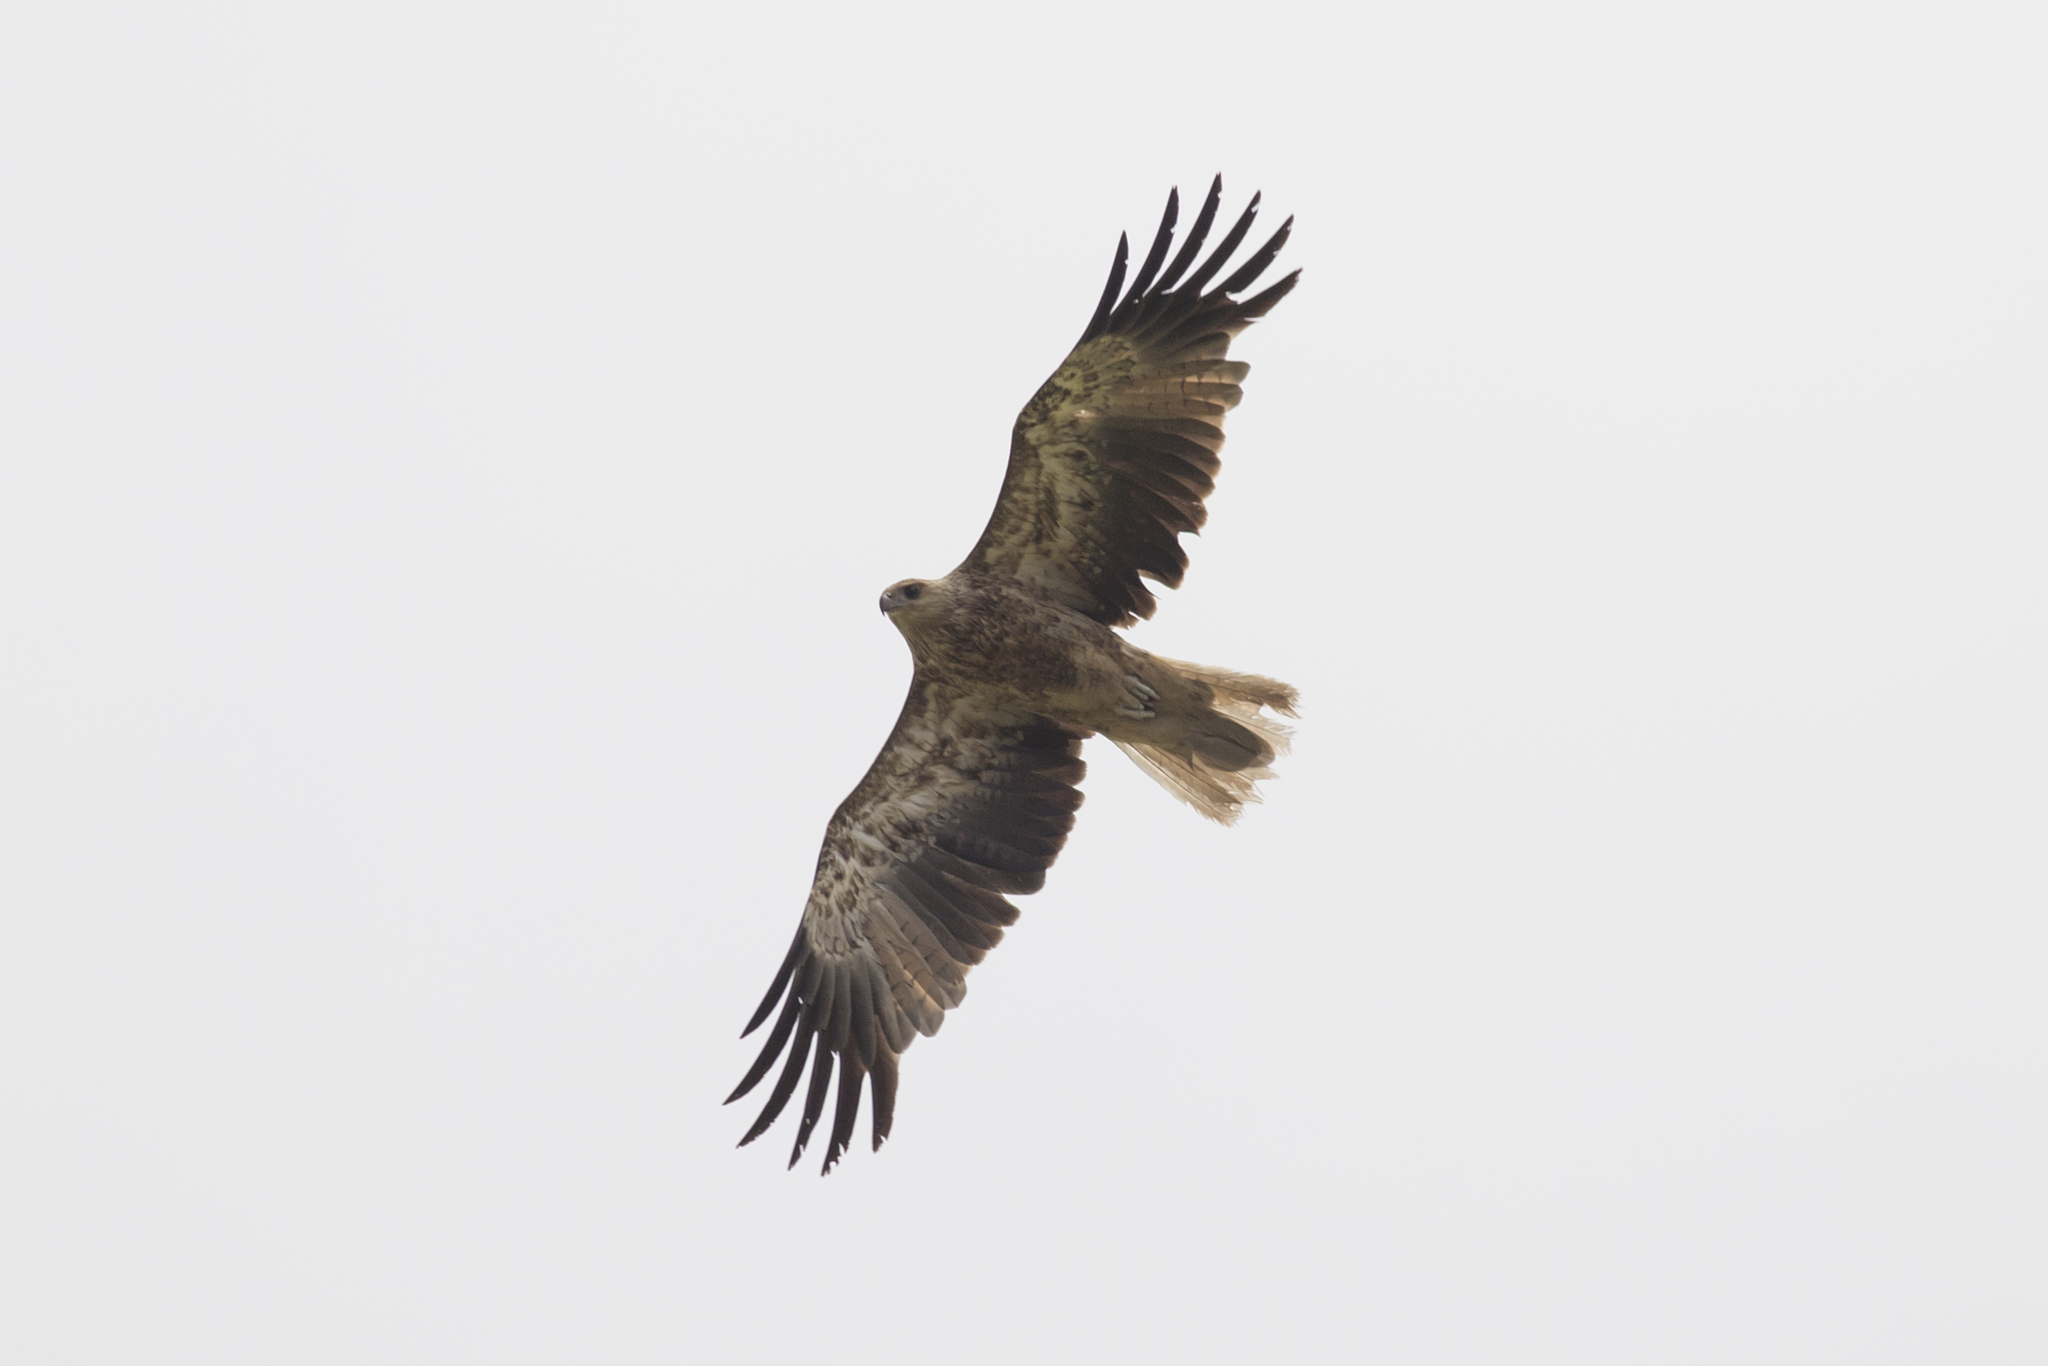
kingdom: Animalia
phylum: Chordata
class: Aves
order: Accipitriformes
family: Accipitridae
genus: Haliastur
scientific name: Haliastur sphenurus
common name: Whistling kite
